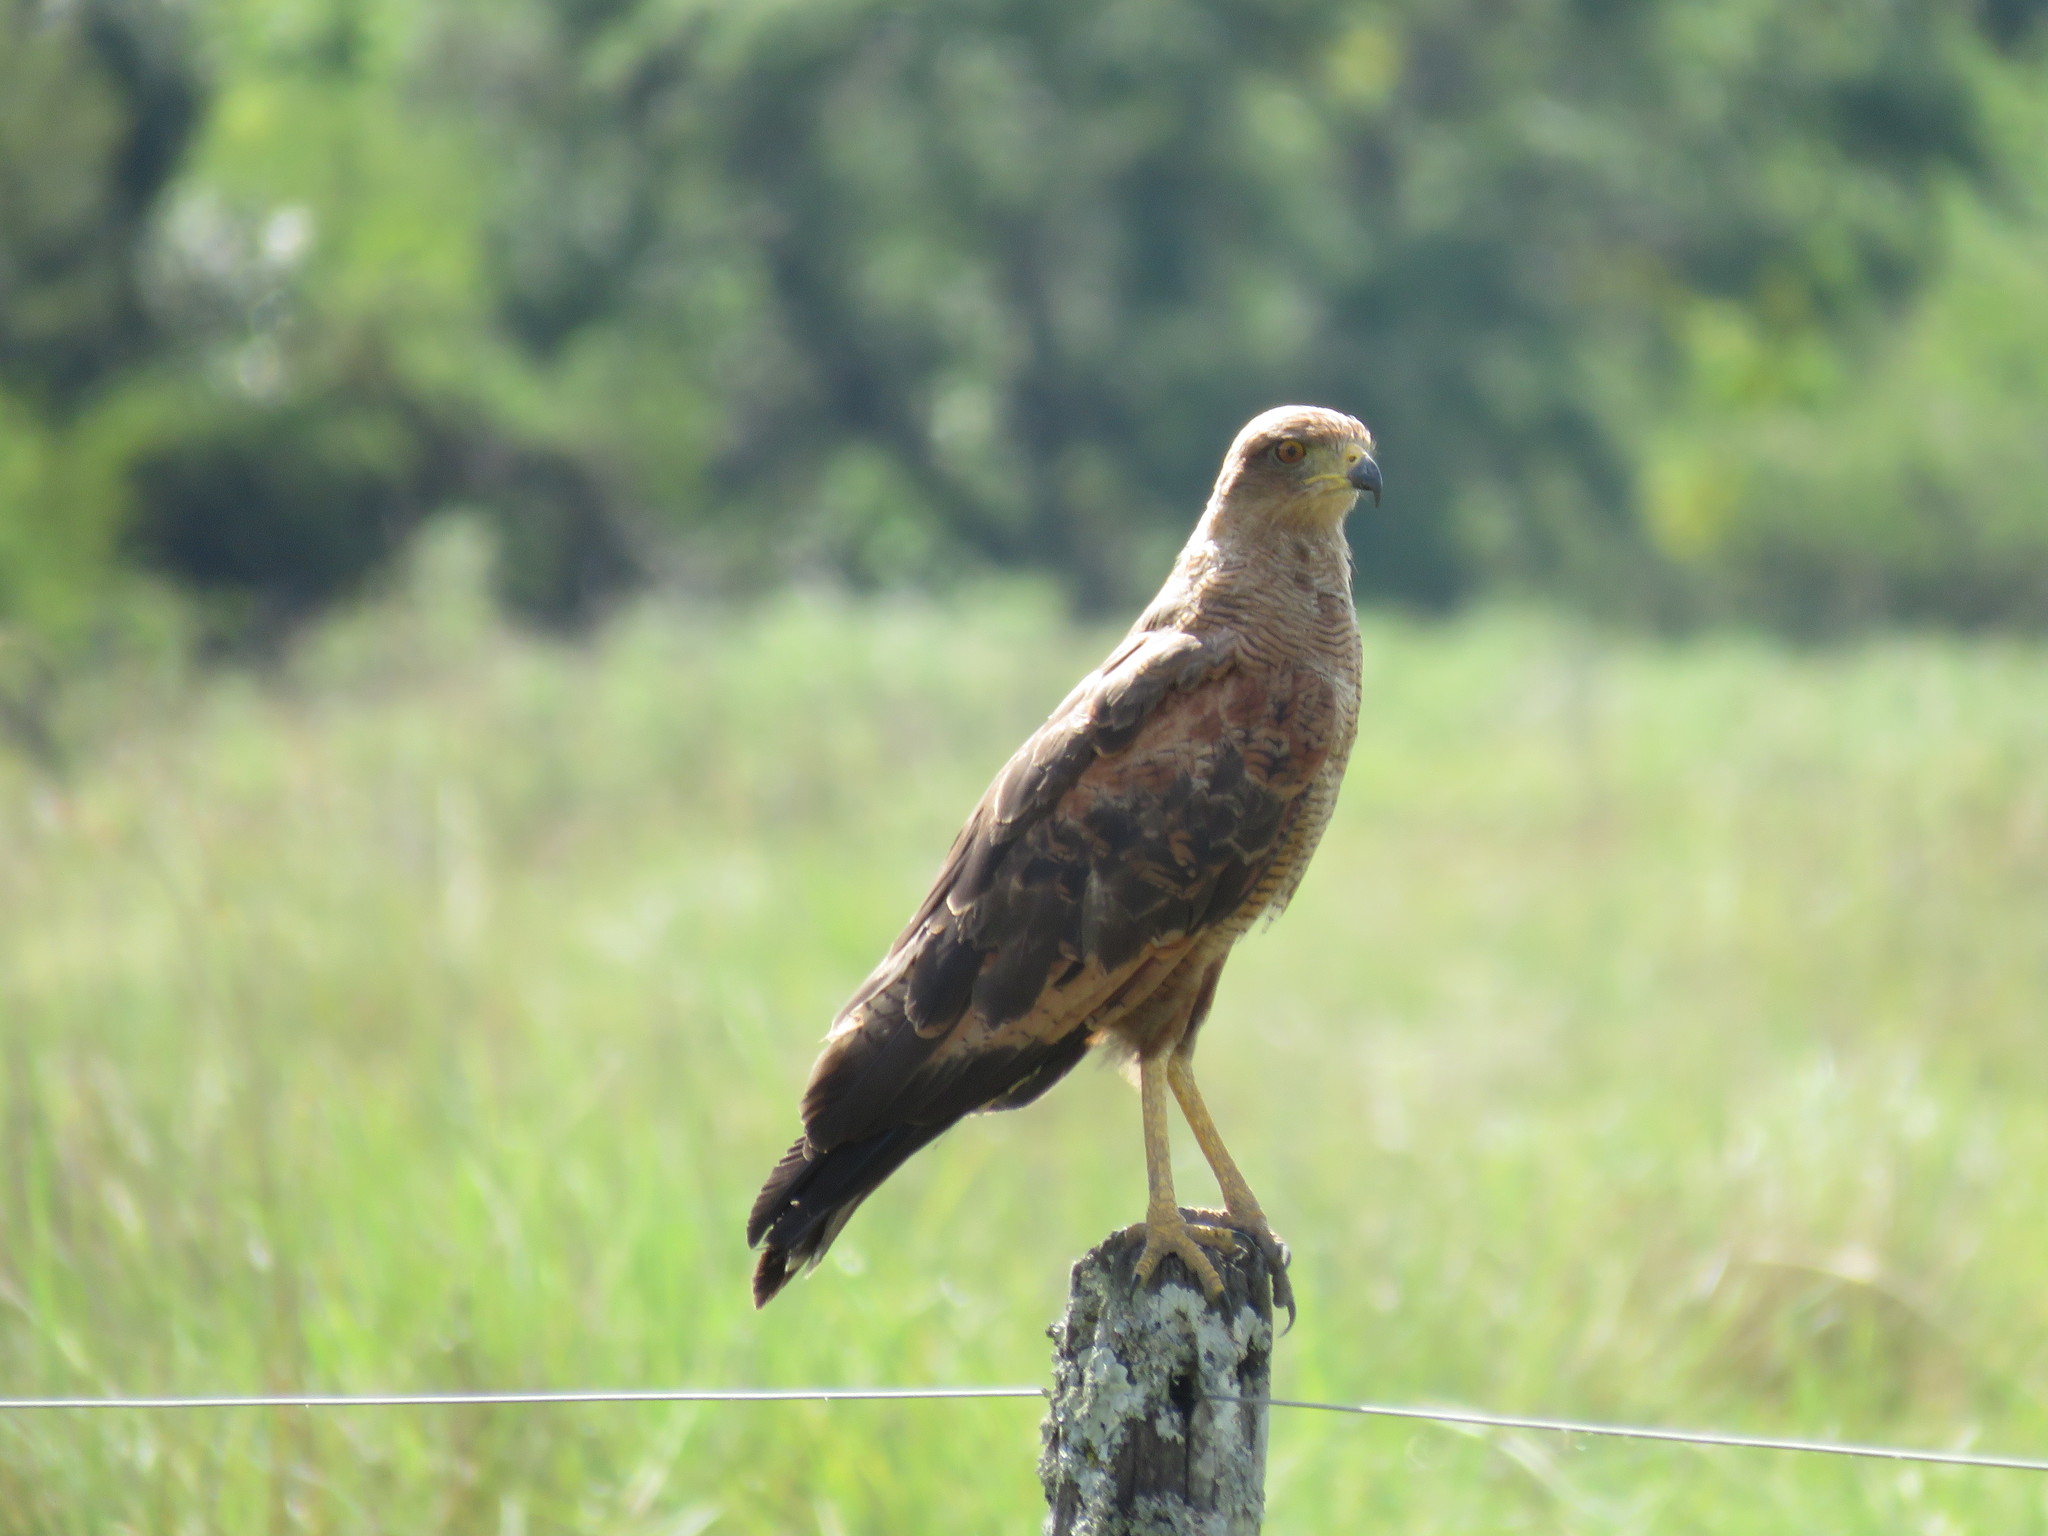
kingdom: Animalia
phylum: Chordata
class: Aves
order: Accipitriformes
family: Accipitridae
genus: Buteogallus
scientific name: Buteogallus meridionalis
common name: Savanna hawk
